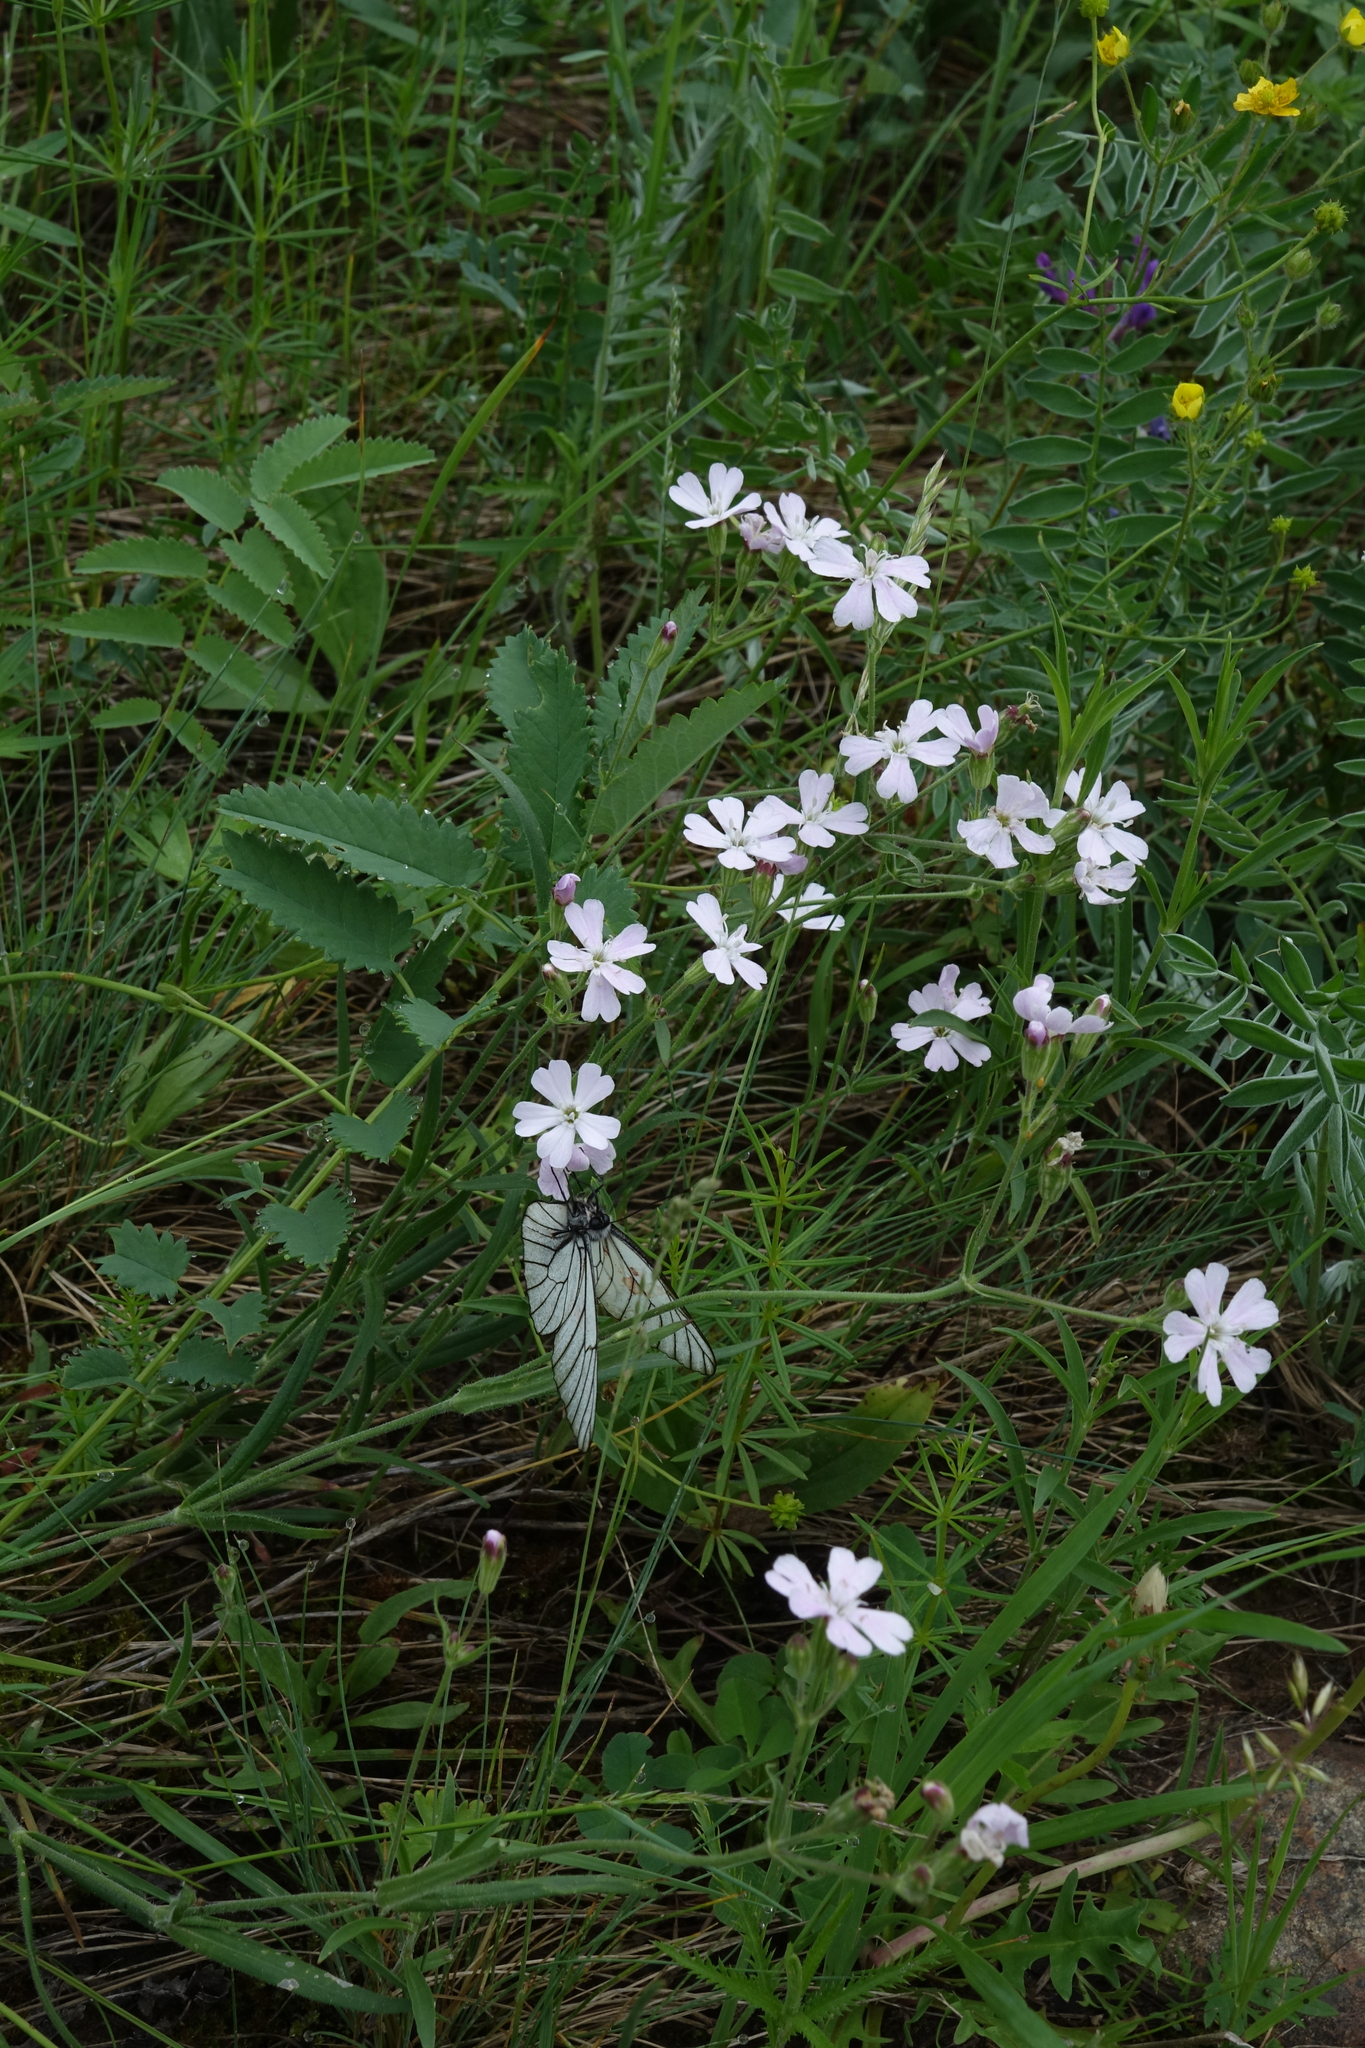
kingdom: Plantae
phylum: Tracheophyta
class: Magnoliopsida
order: Caryophyllales
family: Caryophyllaceae
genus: Silene
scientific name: Silene orientalimongolica
